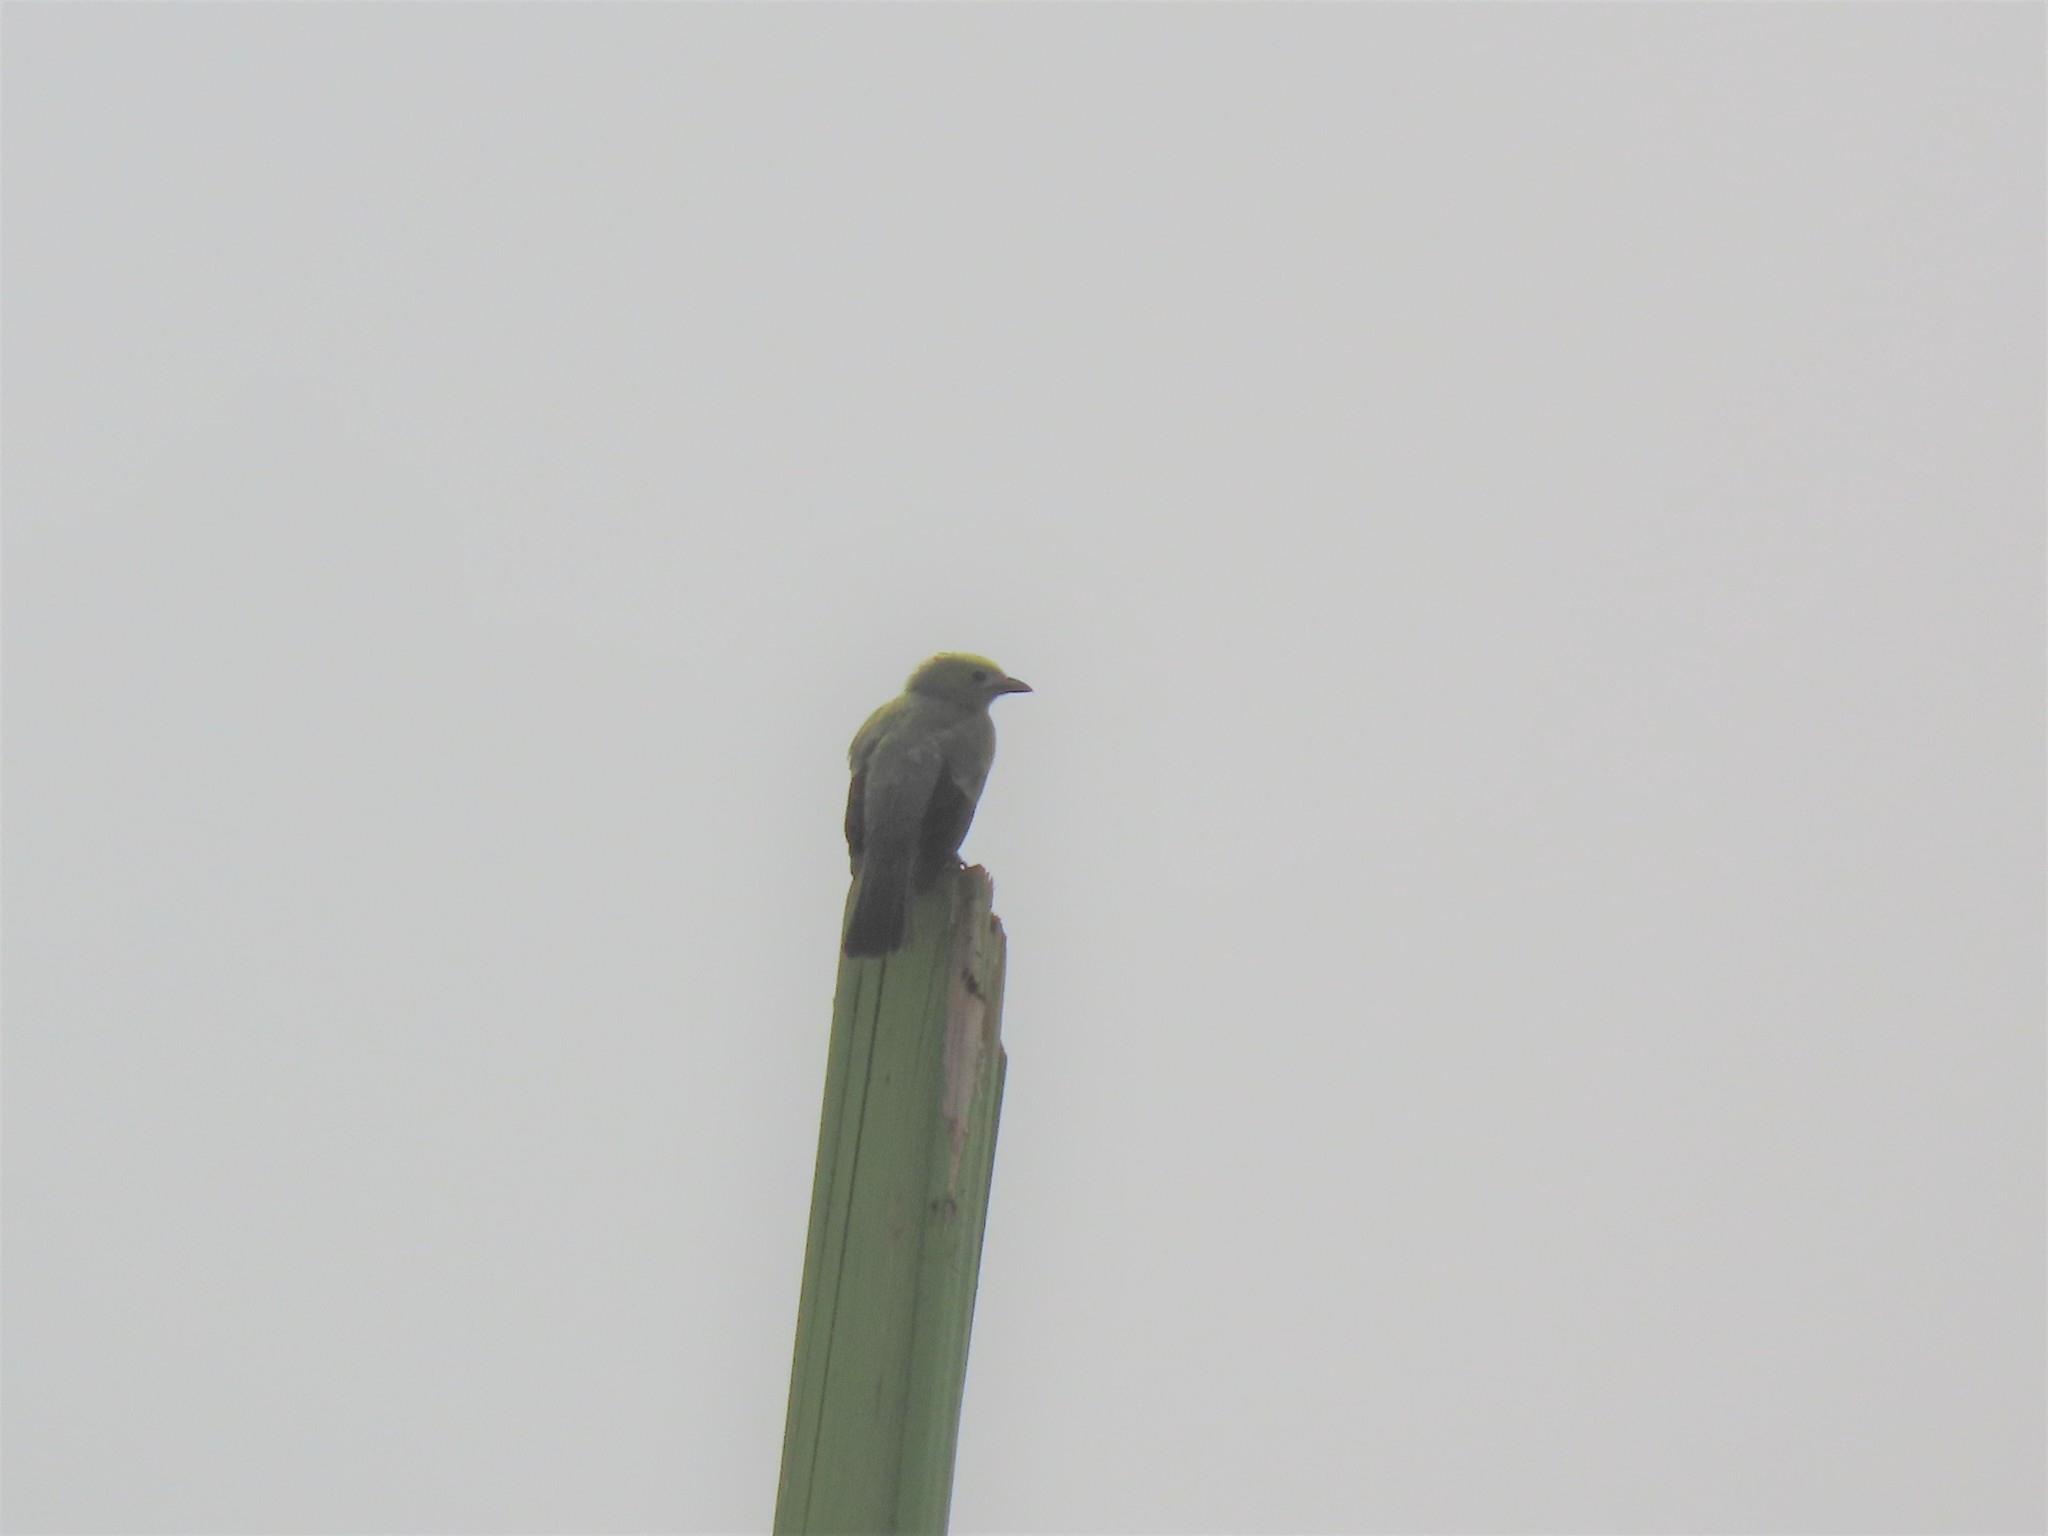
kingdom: Animalia
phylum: Chordata
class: Aves
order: Passeriformes
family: Thraupidae
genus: Thraupis
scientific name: Thraupis palmarum
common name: Palm tanager
